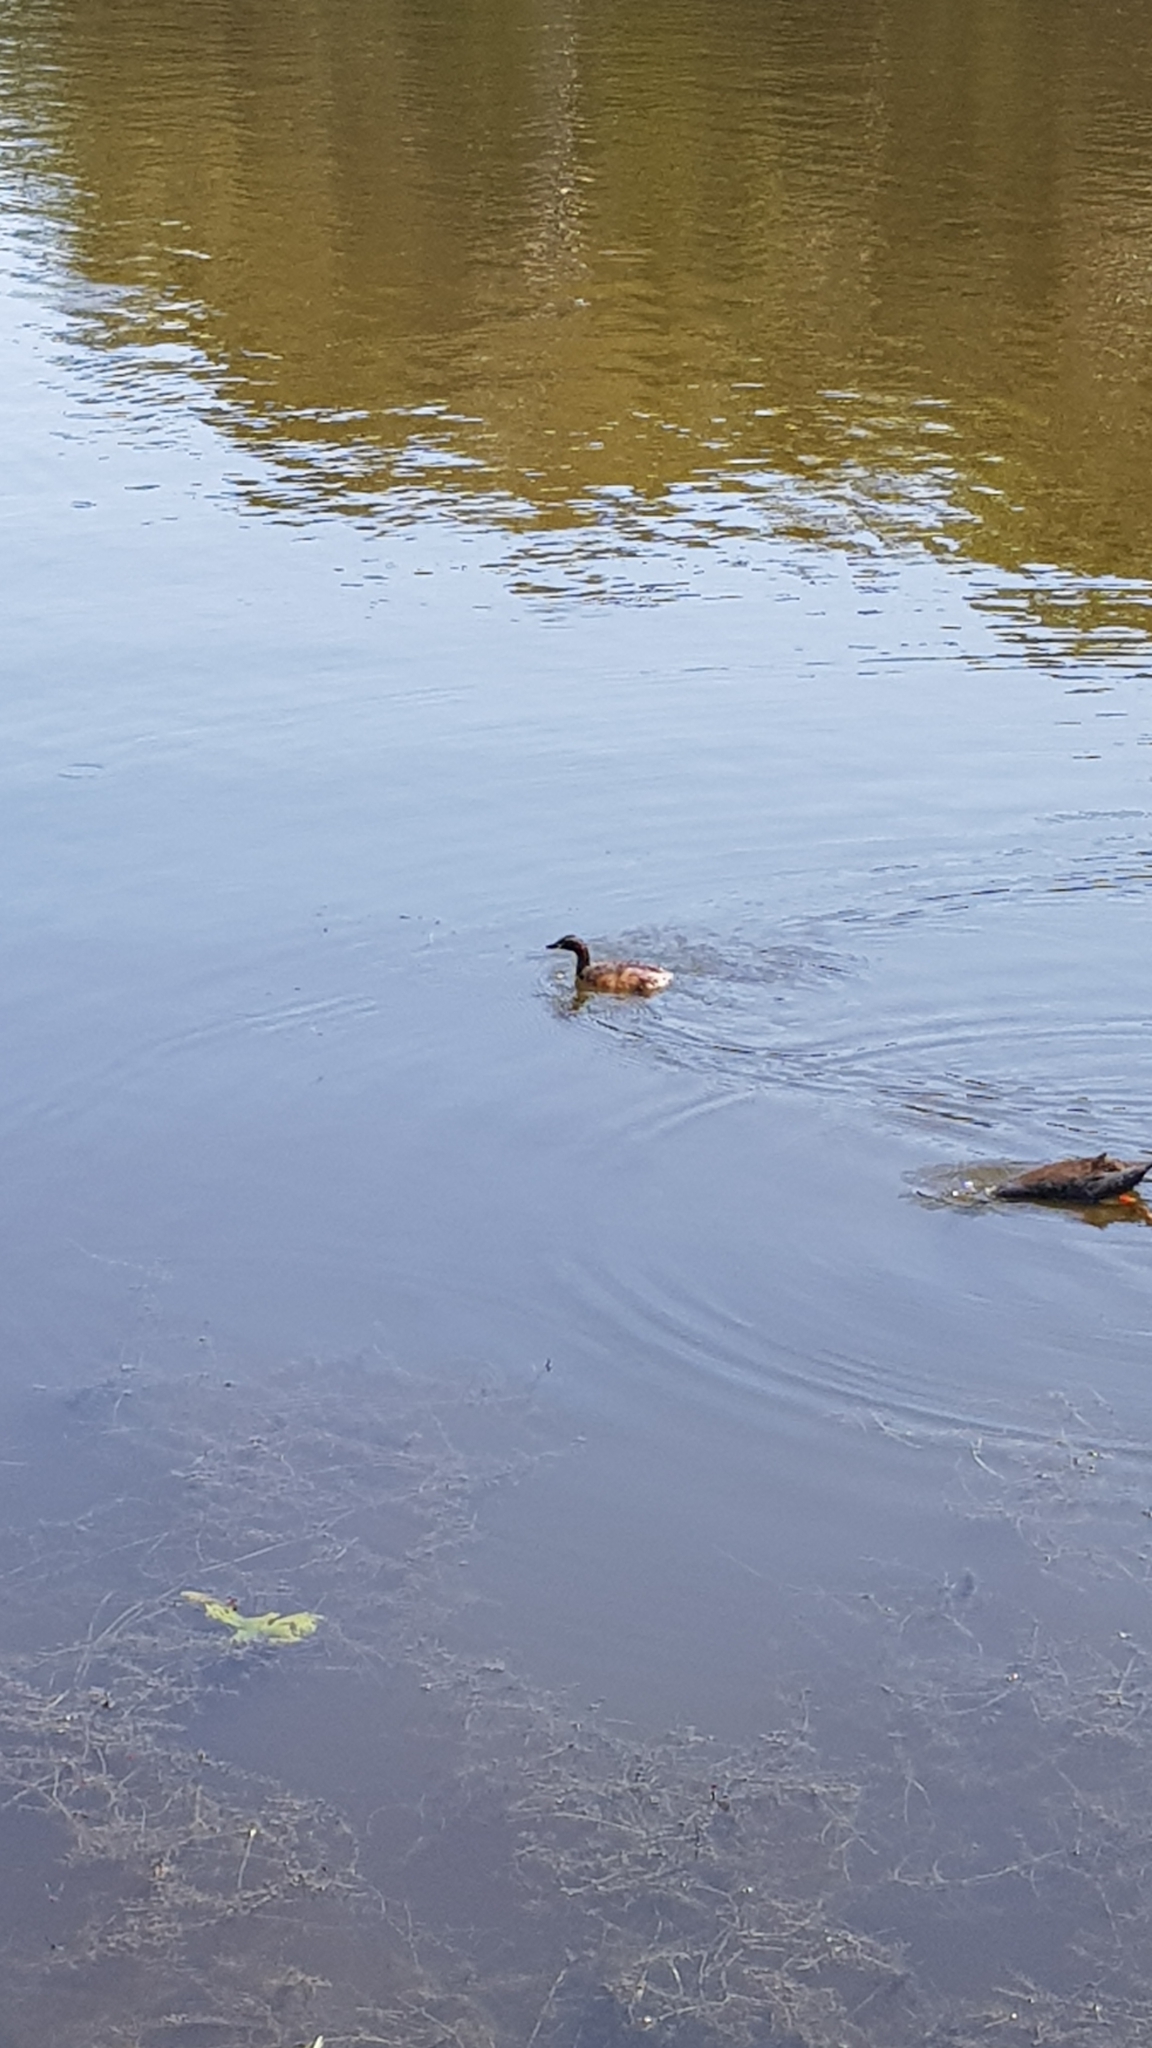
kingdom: Animalia
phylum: Chordata
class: Aves
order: Podicipediformes
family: Podicipedidae
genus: Tachybaptus
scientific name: Tachybaptus novaehollandiae
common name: Australasian grebe
